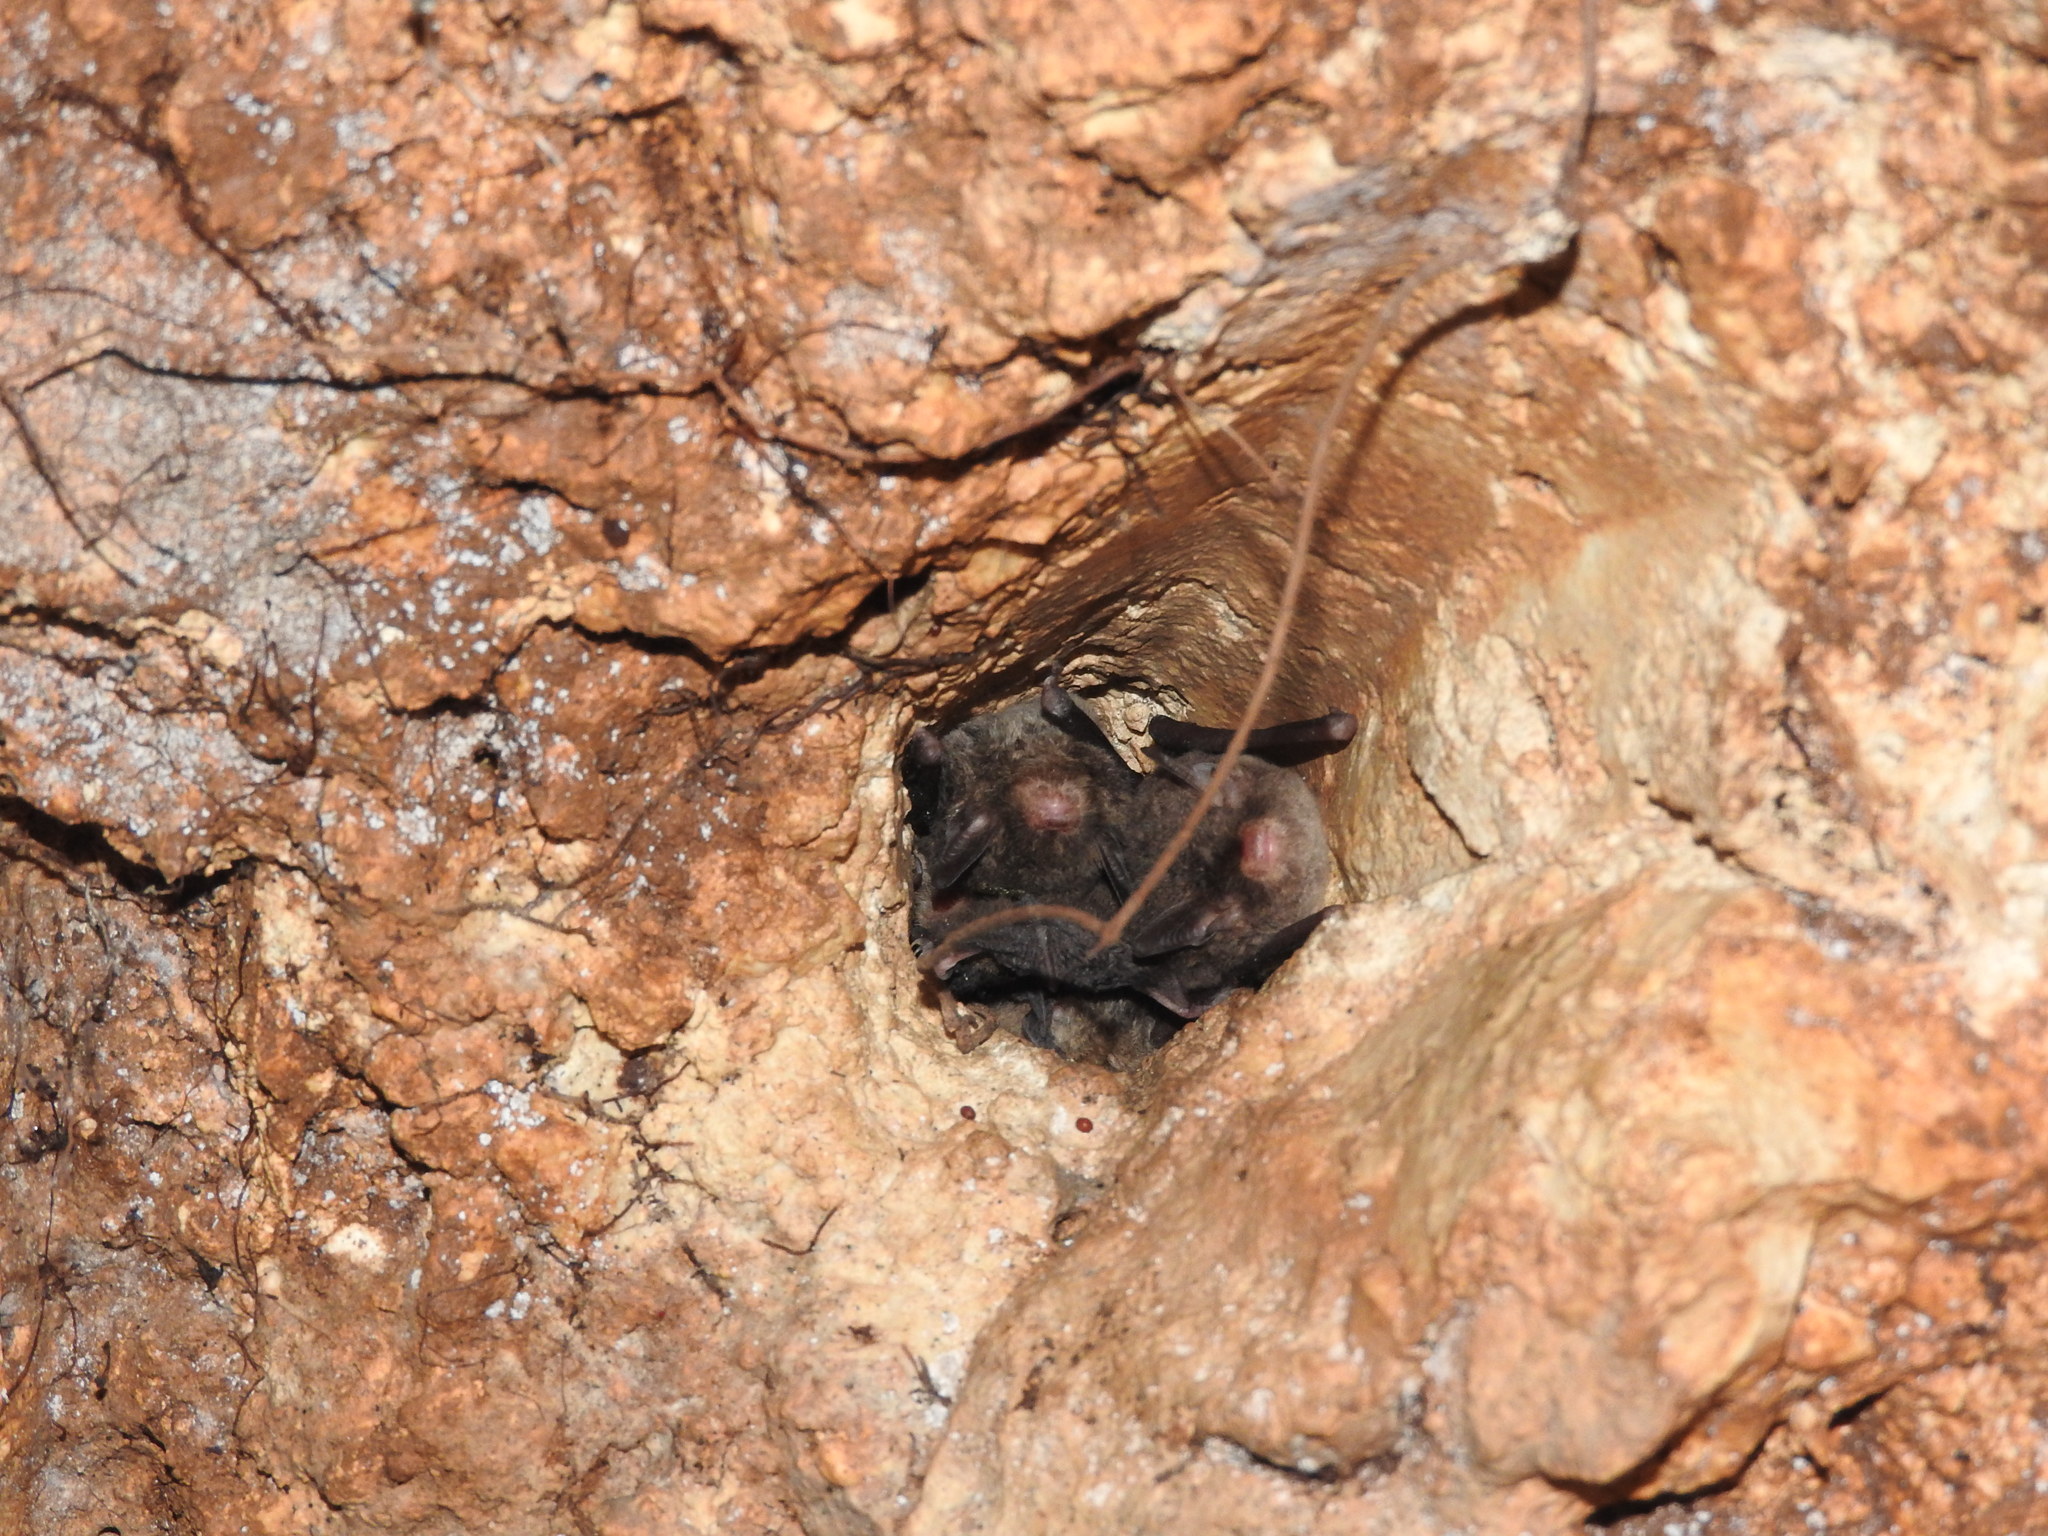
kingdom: Animalia
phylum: Chordata
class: Mammalia
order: Chiroptera
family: Vespertilionidae
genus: Myotis
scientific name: Myotis pilosatibialis
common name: Northern hairy-legged myotis
